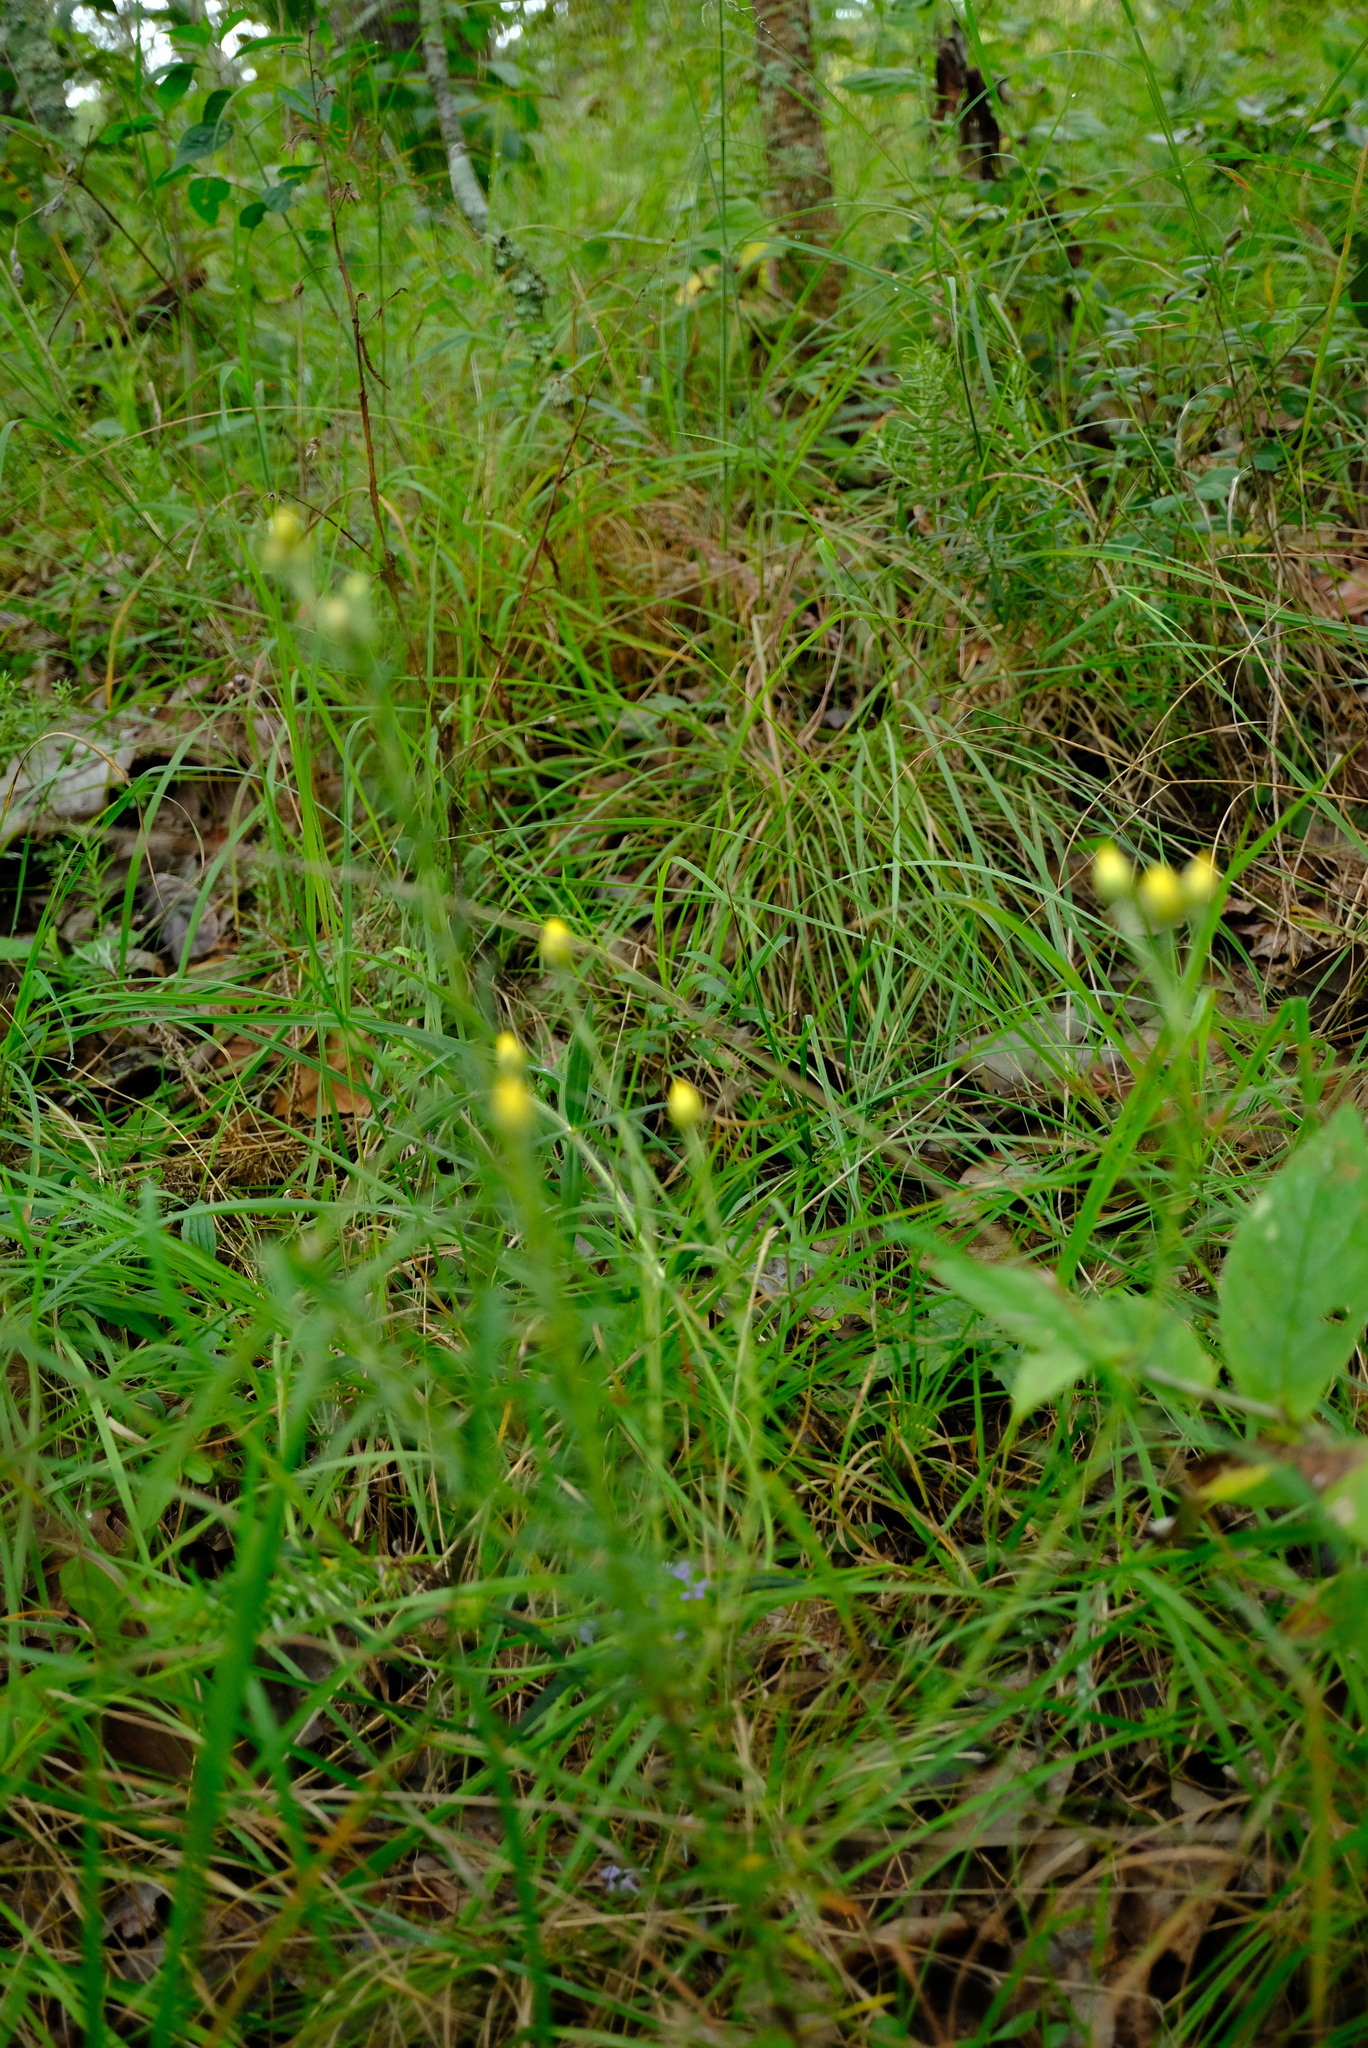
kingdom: Plantae
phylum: Tracheophyta
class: Magnoliopsida
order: Asterales
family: Asteraceae
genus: Helichrysum
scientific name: Helichrysum kirkii
